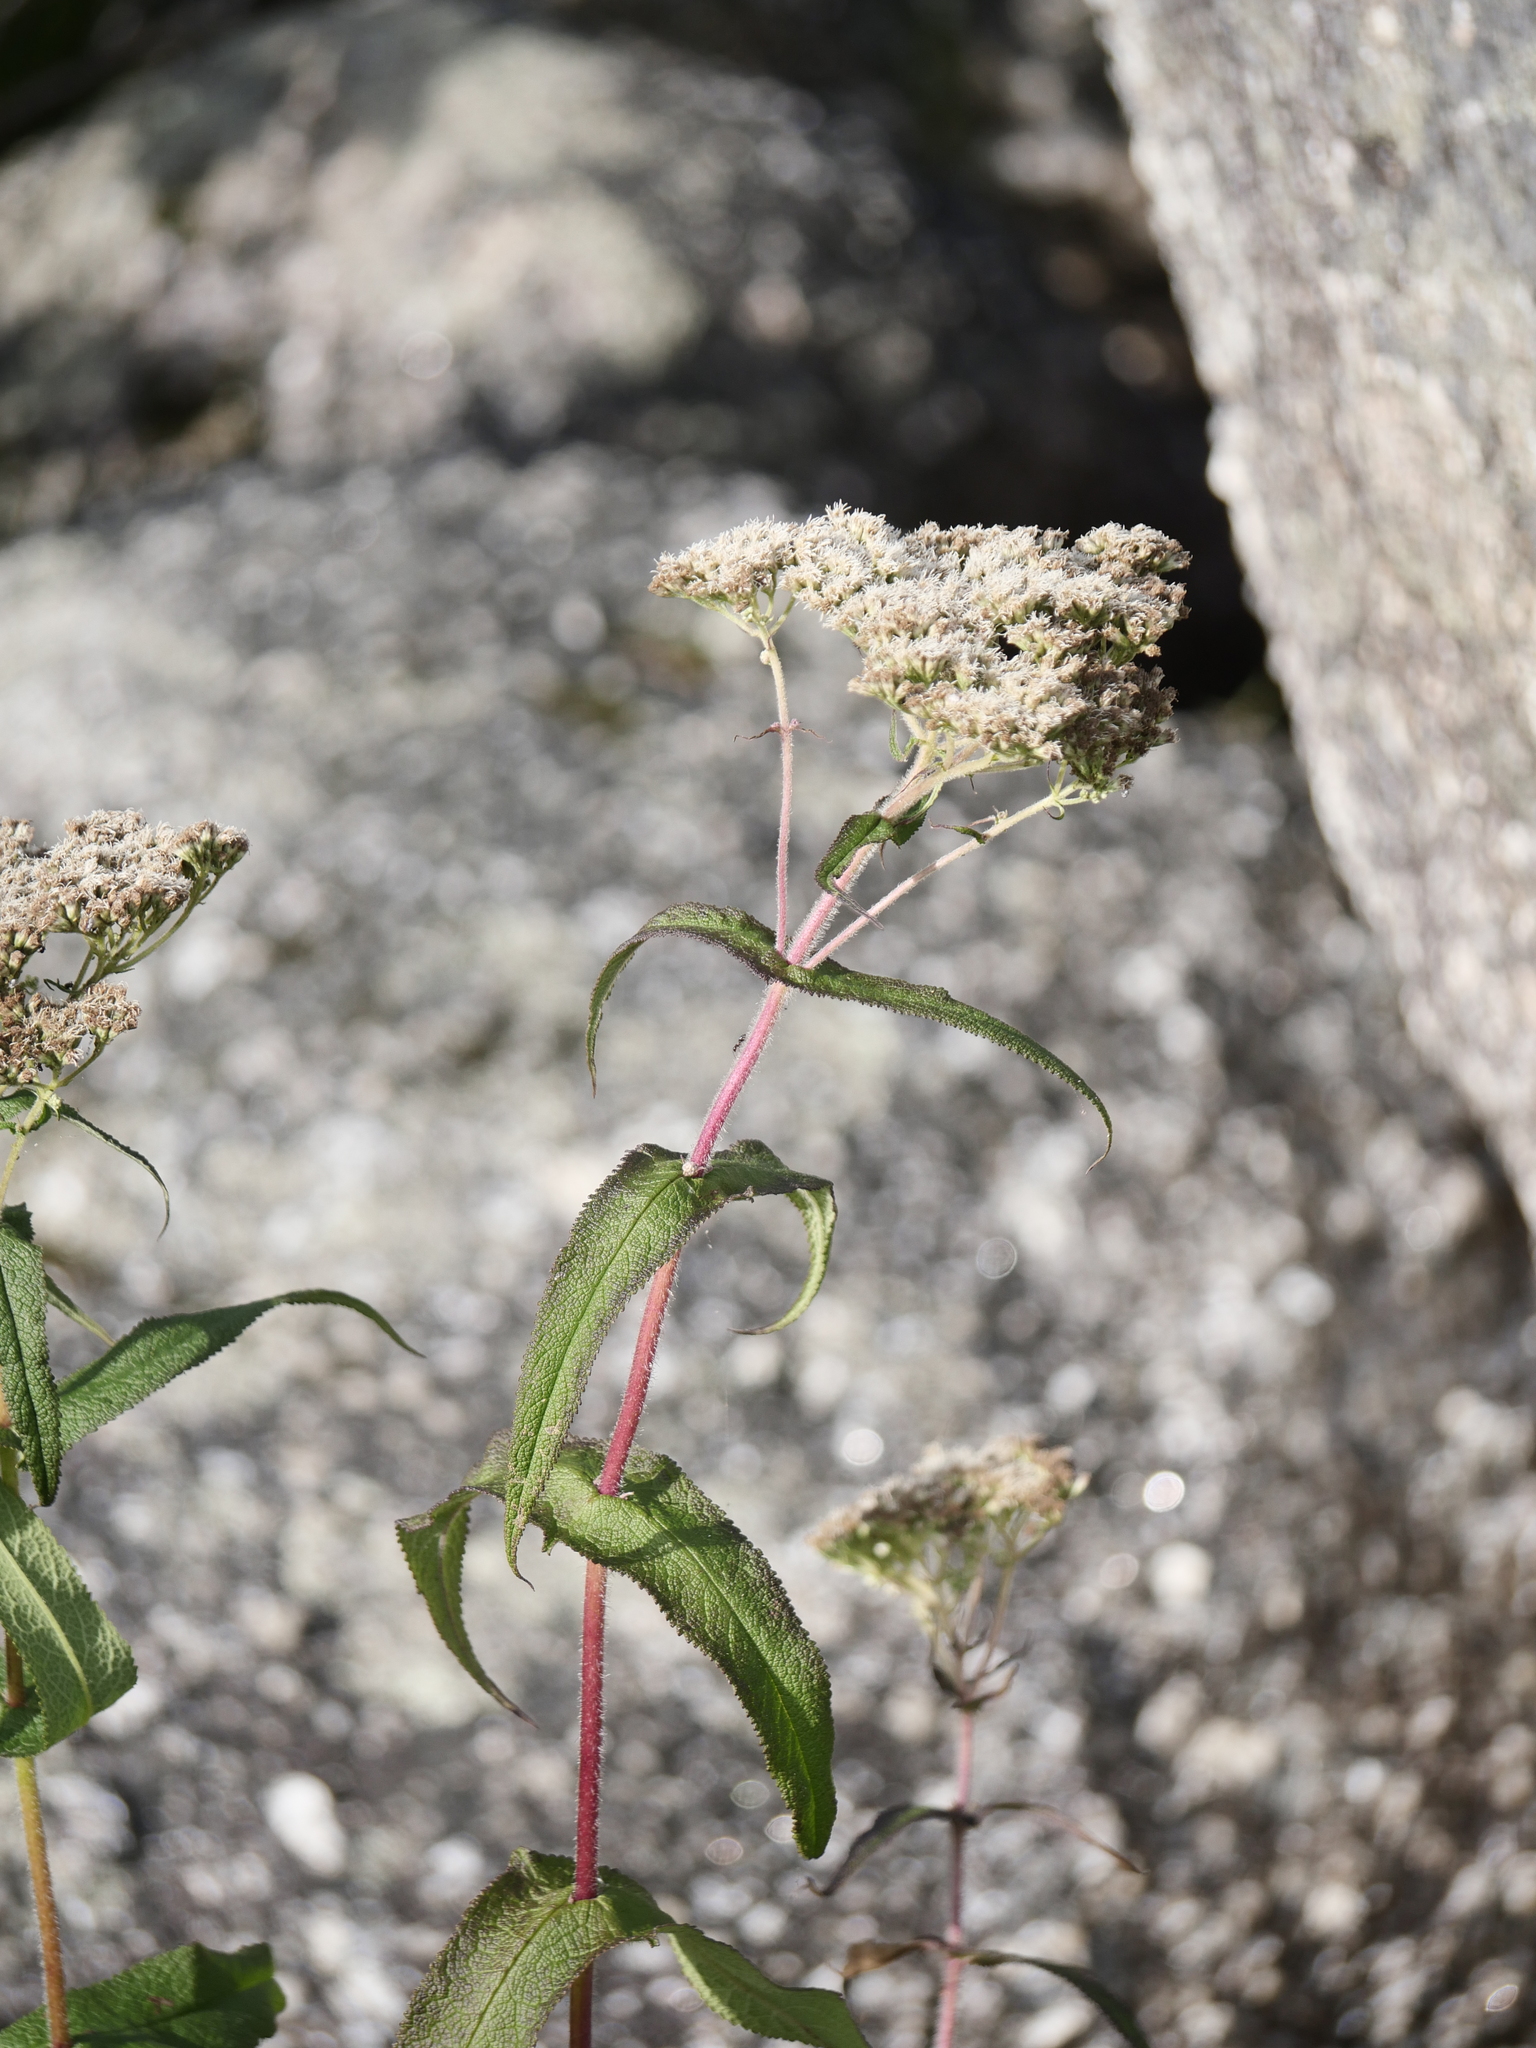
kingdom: Plantae
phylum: Tracheophyta
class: Magnoliopsida
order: Asterales
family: Asteraceae
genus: Eupatorium
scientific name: Eupatorium perfoliatum
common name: Boneset
